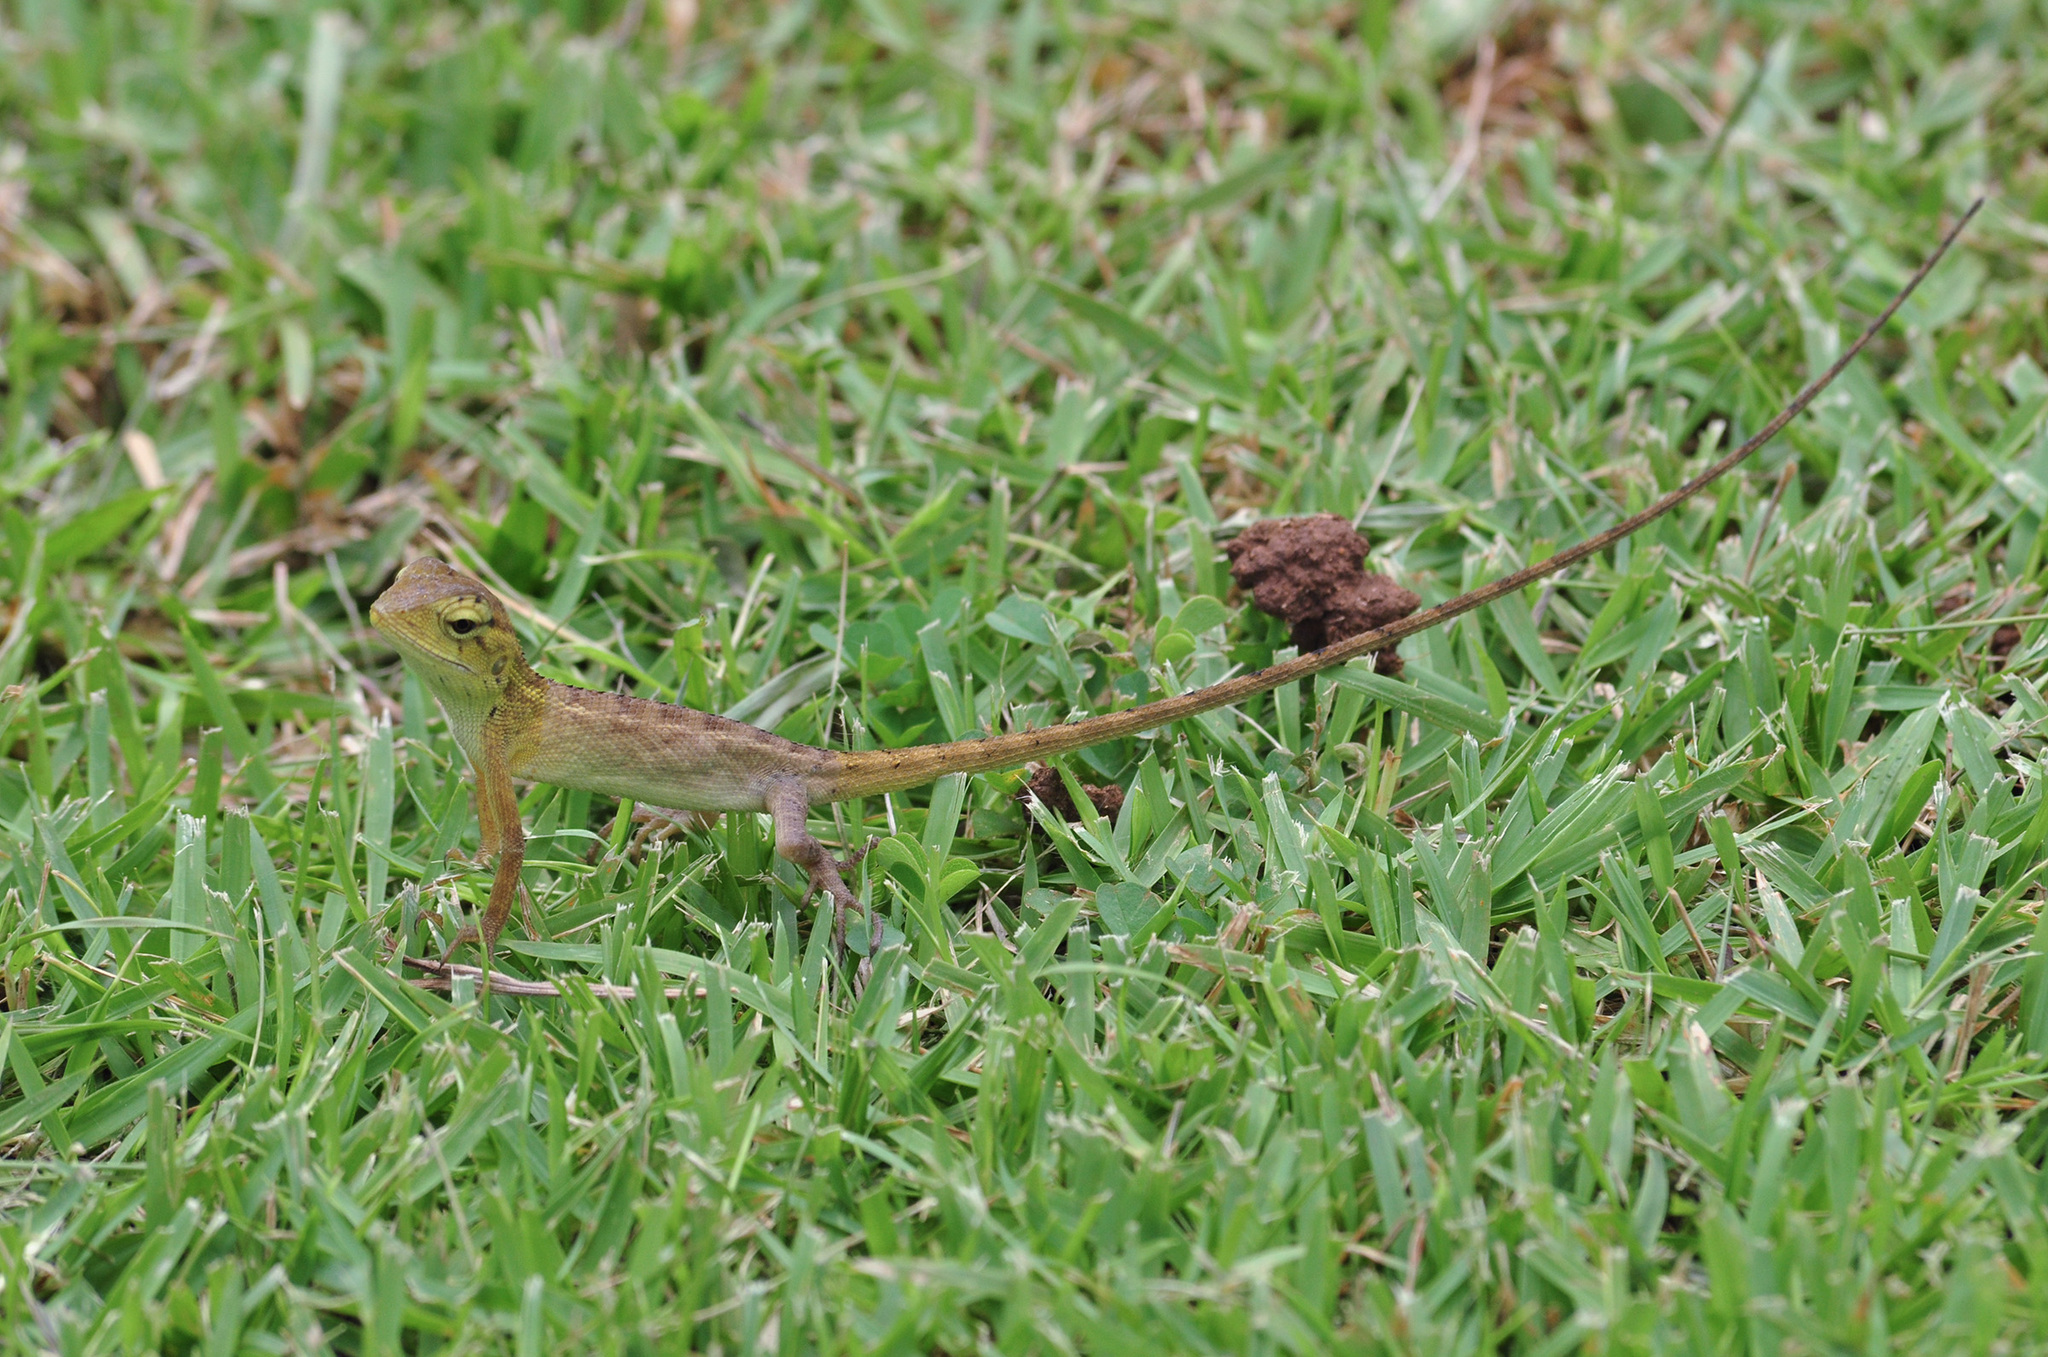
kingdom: Animalia
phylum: Chordata
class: Squamata
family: Agamidae
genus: Calotes
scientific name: Calotes versicolor
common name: Oriental garden lizard
